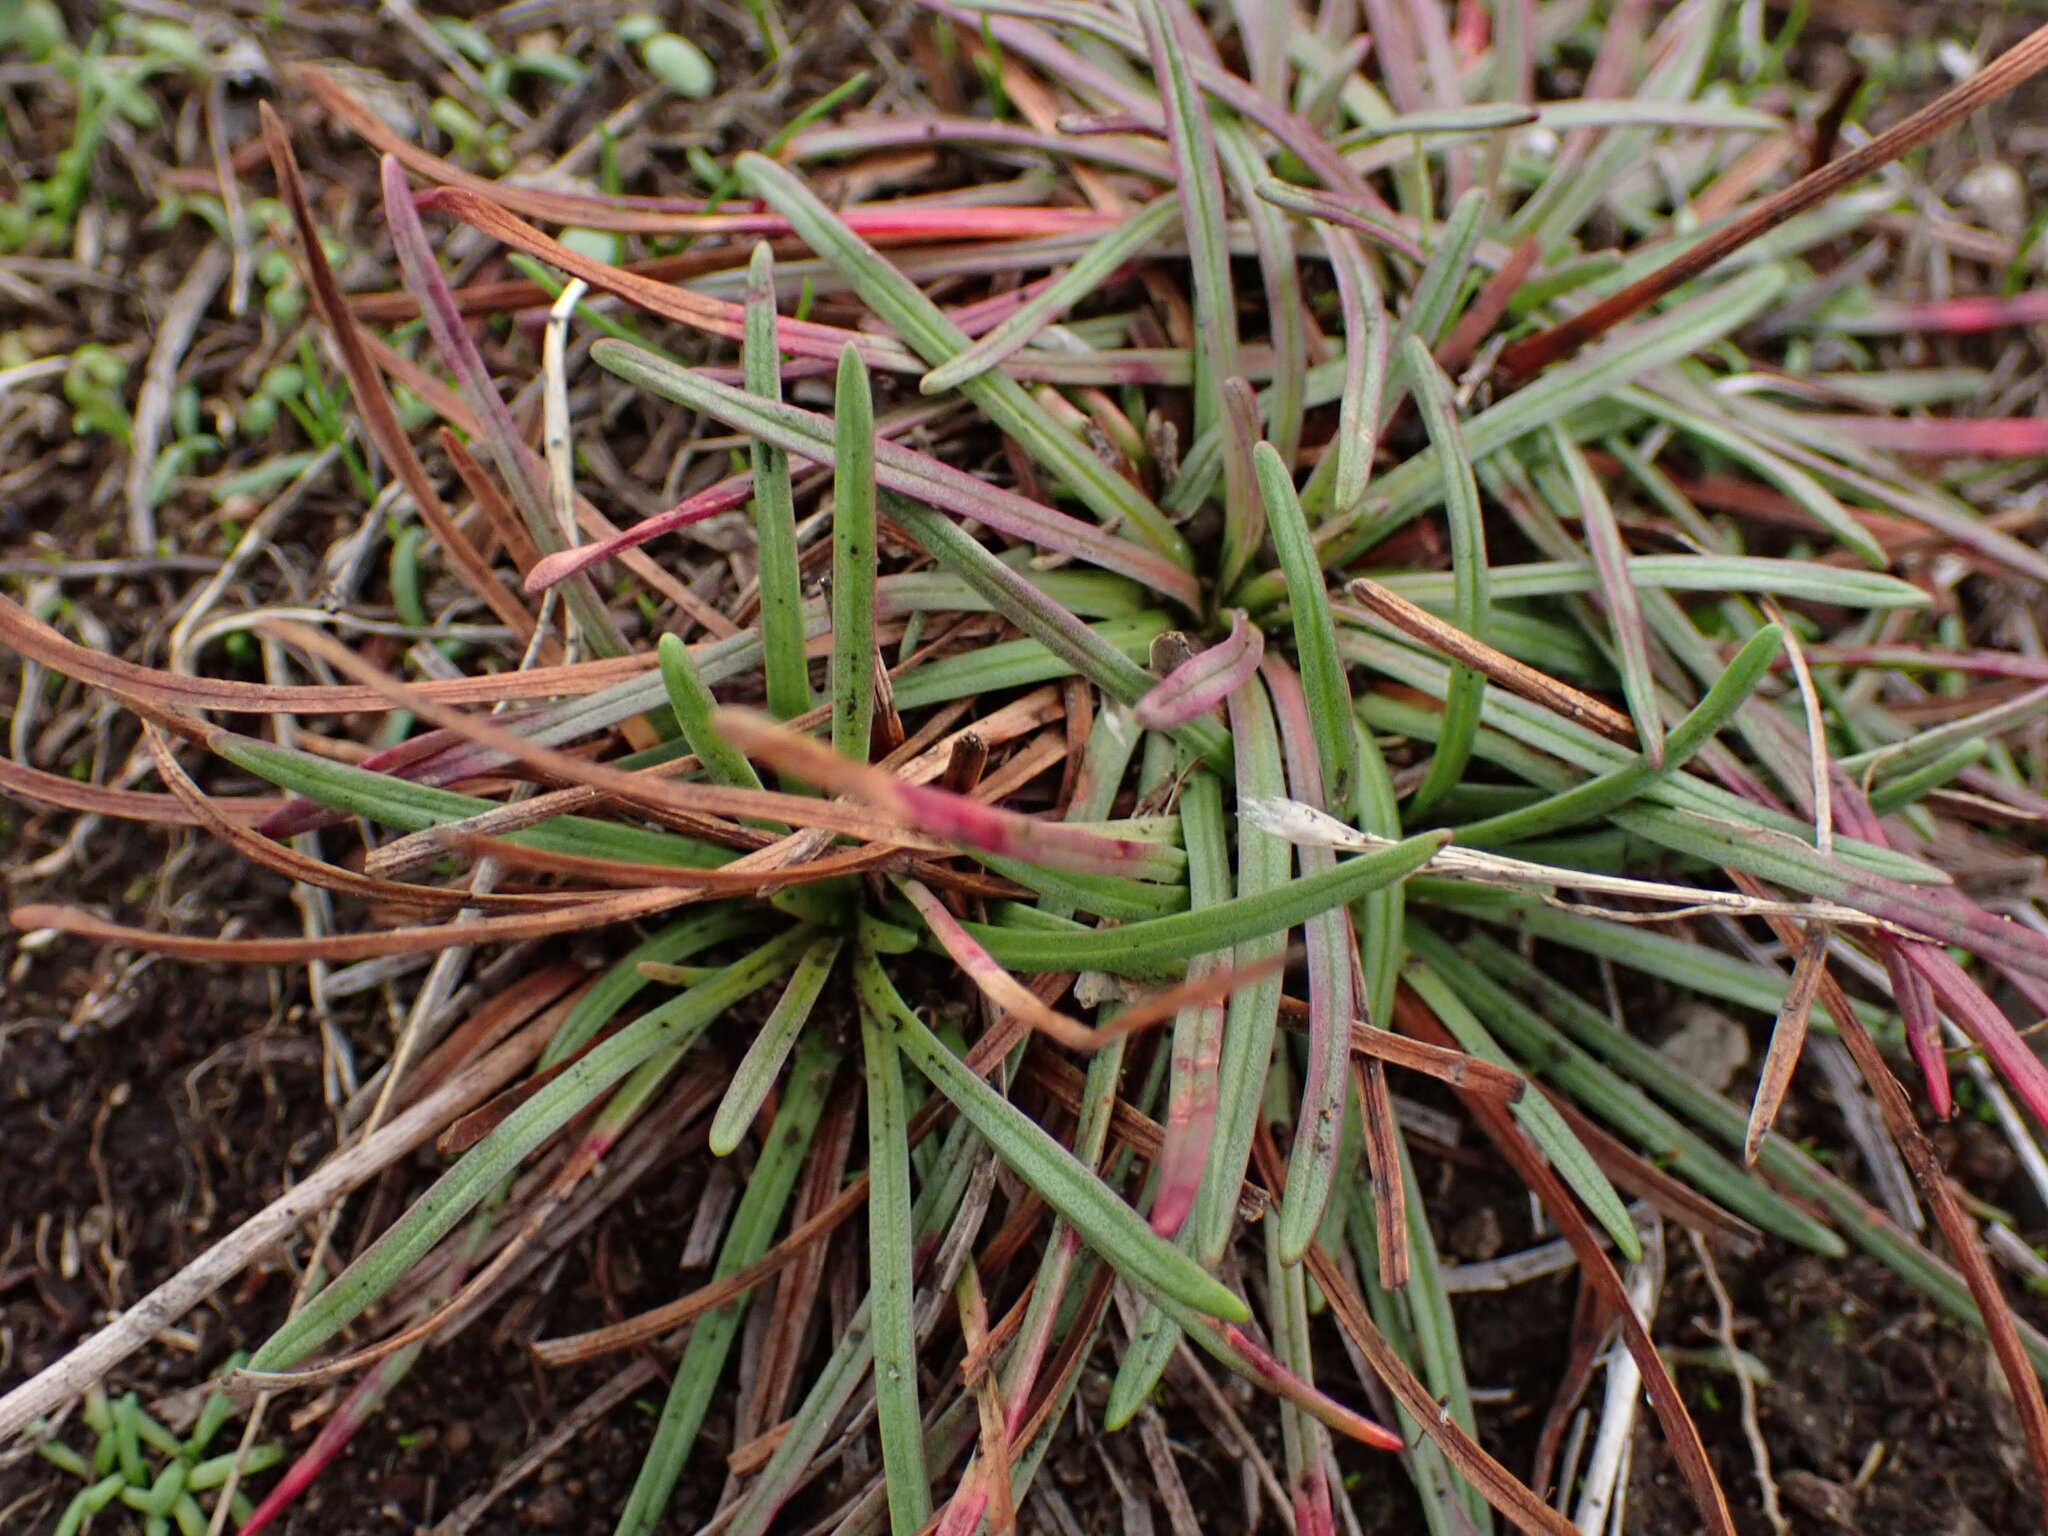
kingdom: Plantae
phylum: Tracheophyta
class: Magnoliopsida
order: Caryophyllales
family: Plumbaginaceae
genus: Armeria
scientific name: Armeria maritima
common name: Thrift
